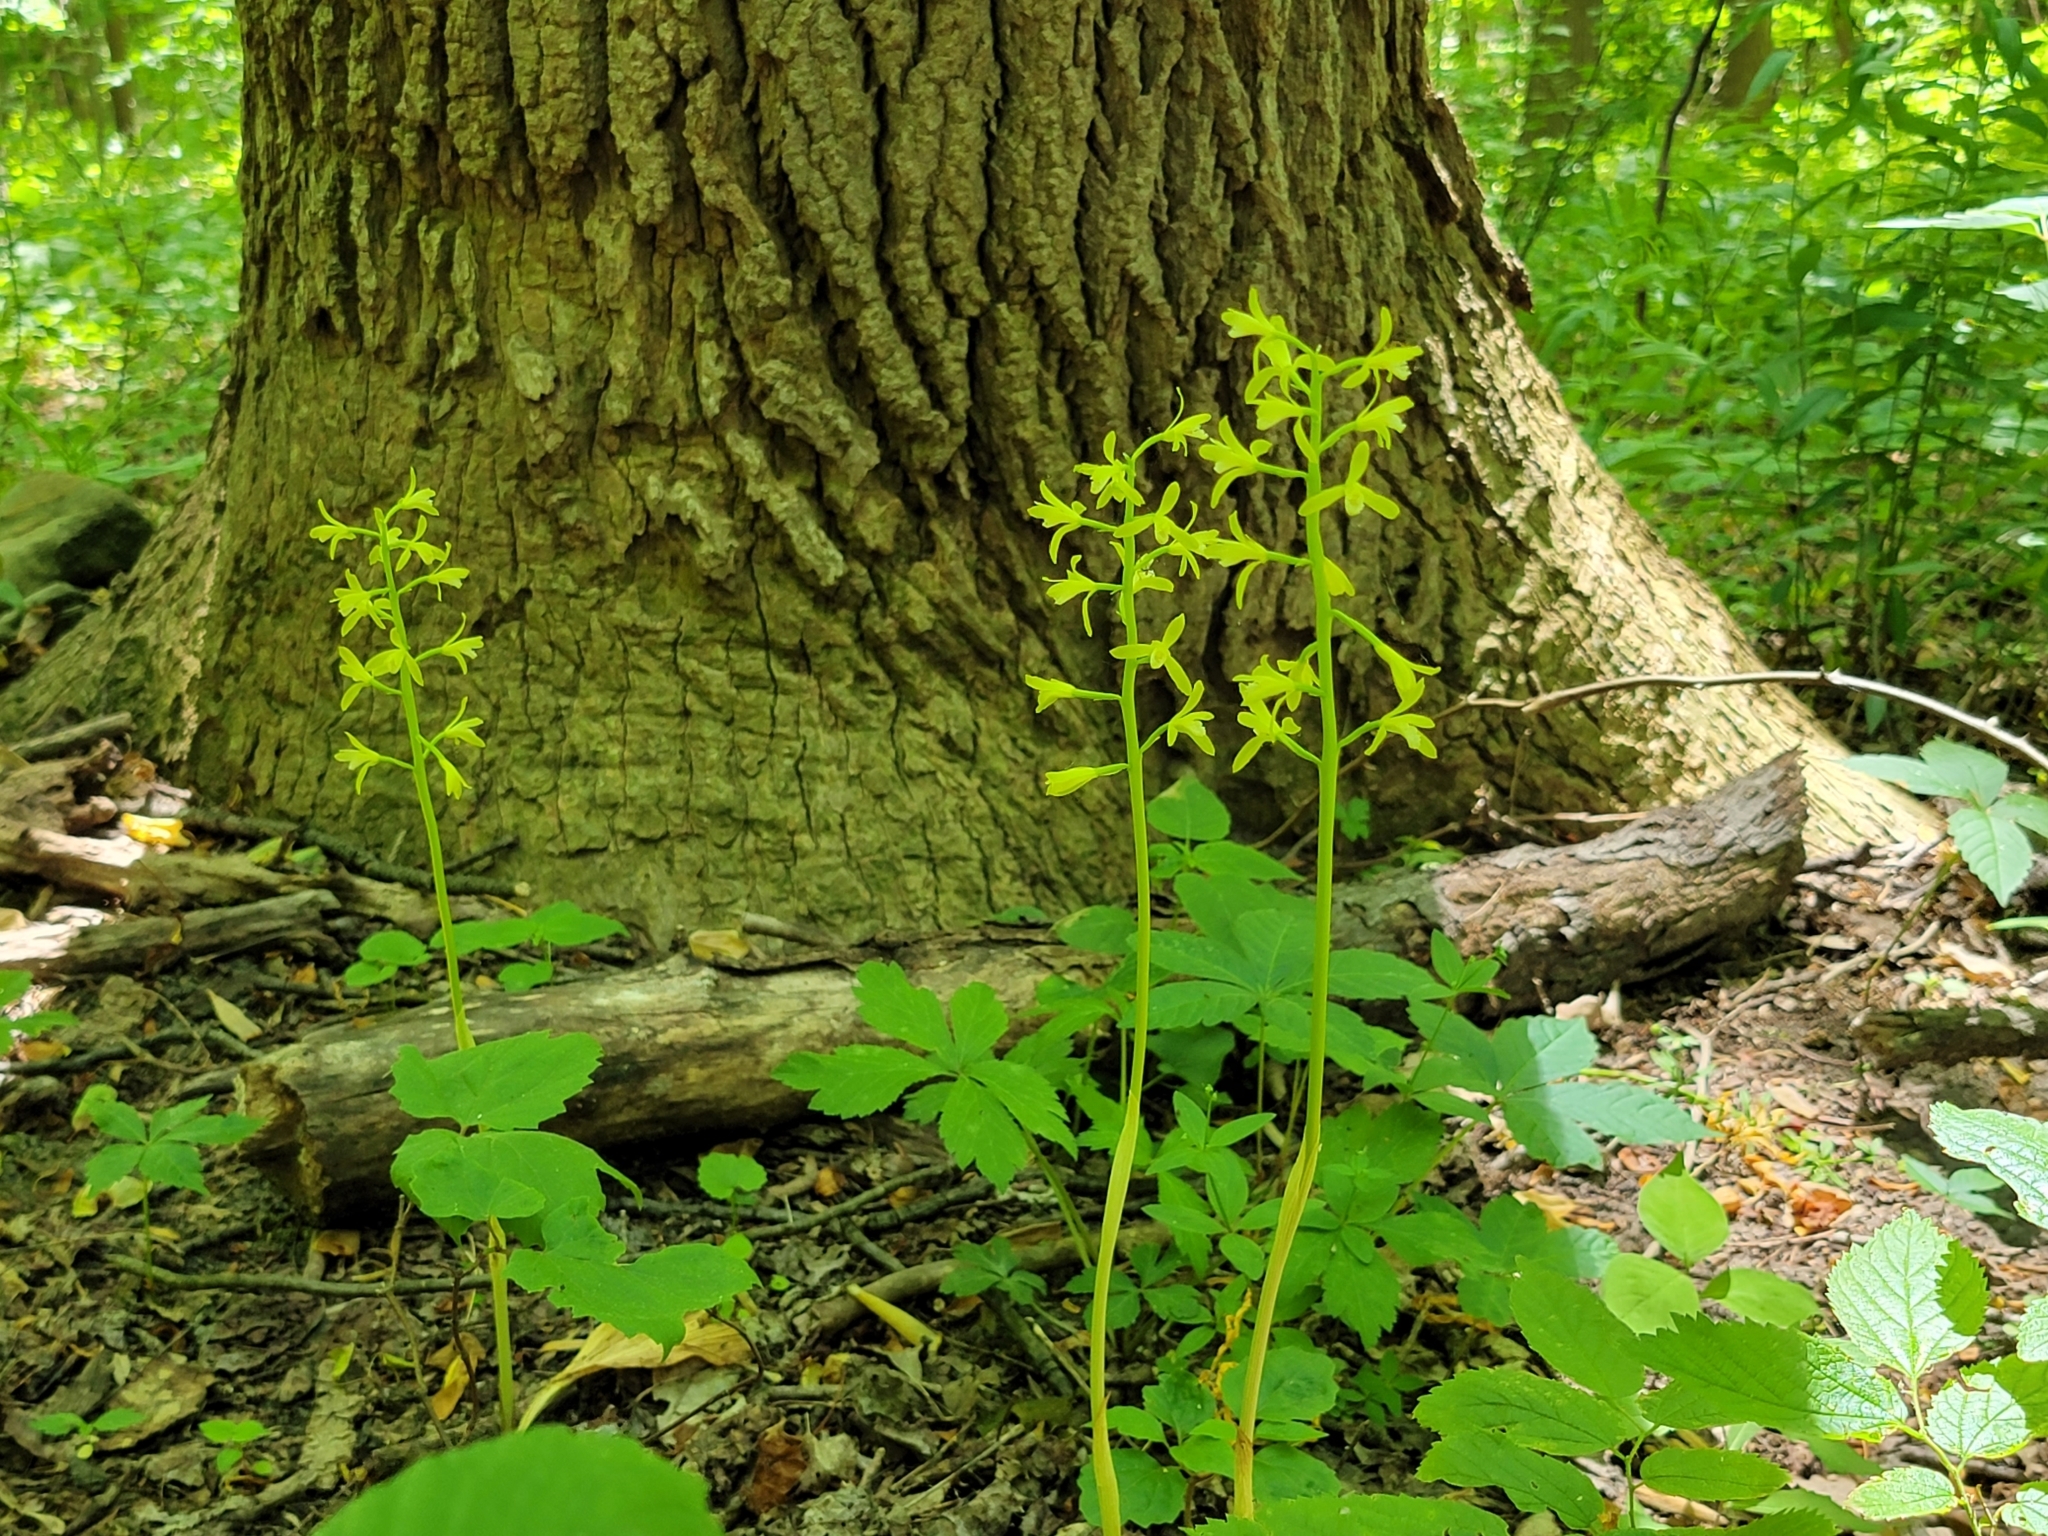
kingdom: Plantae
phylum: Tracheophyta
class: Liliopsida
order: Asparagales
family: Orchidaceae
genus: Aplectrum
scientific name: Aplectrum hyemale
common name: Adam-and-eve
